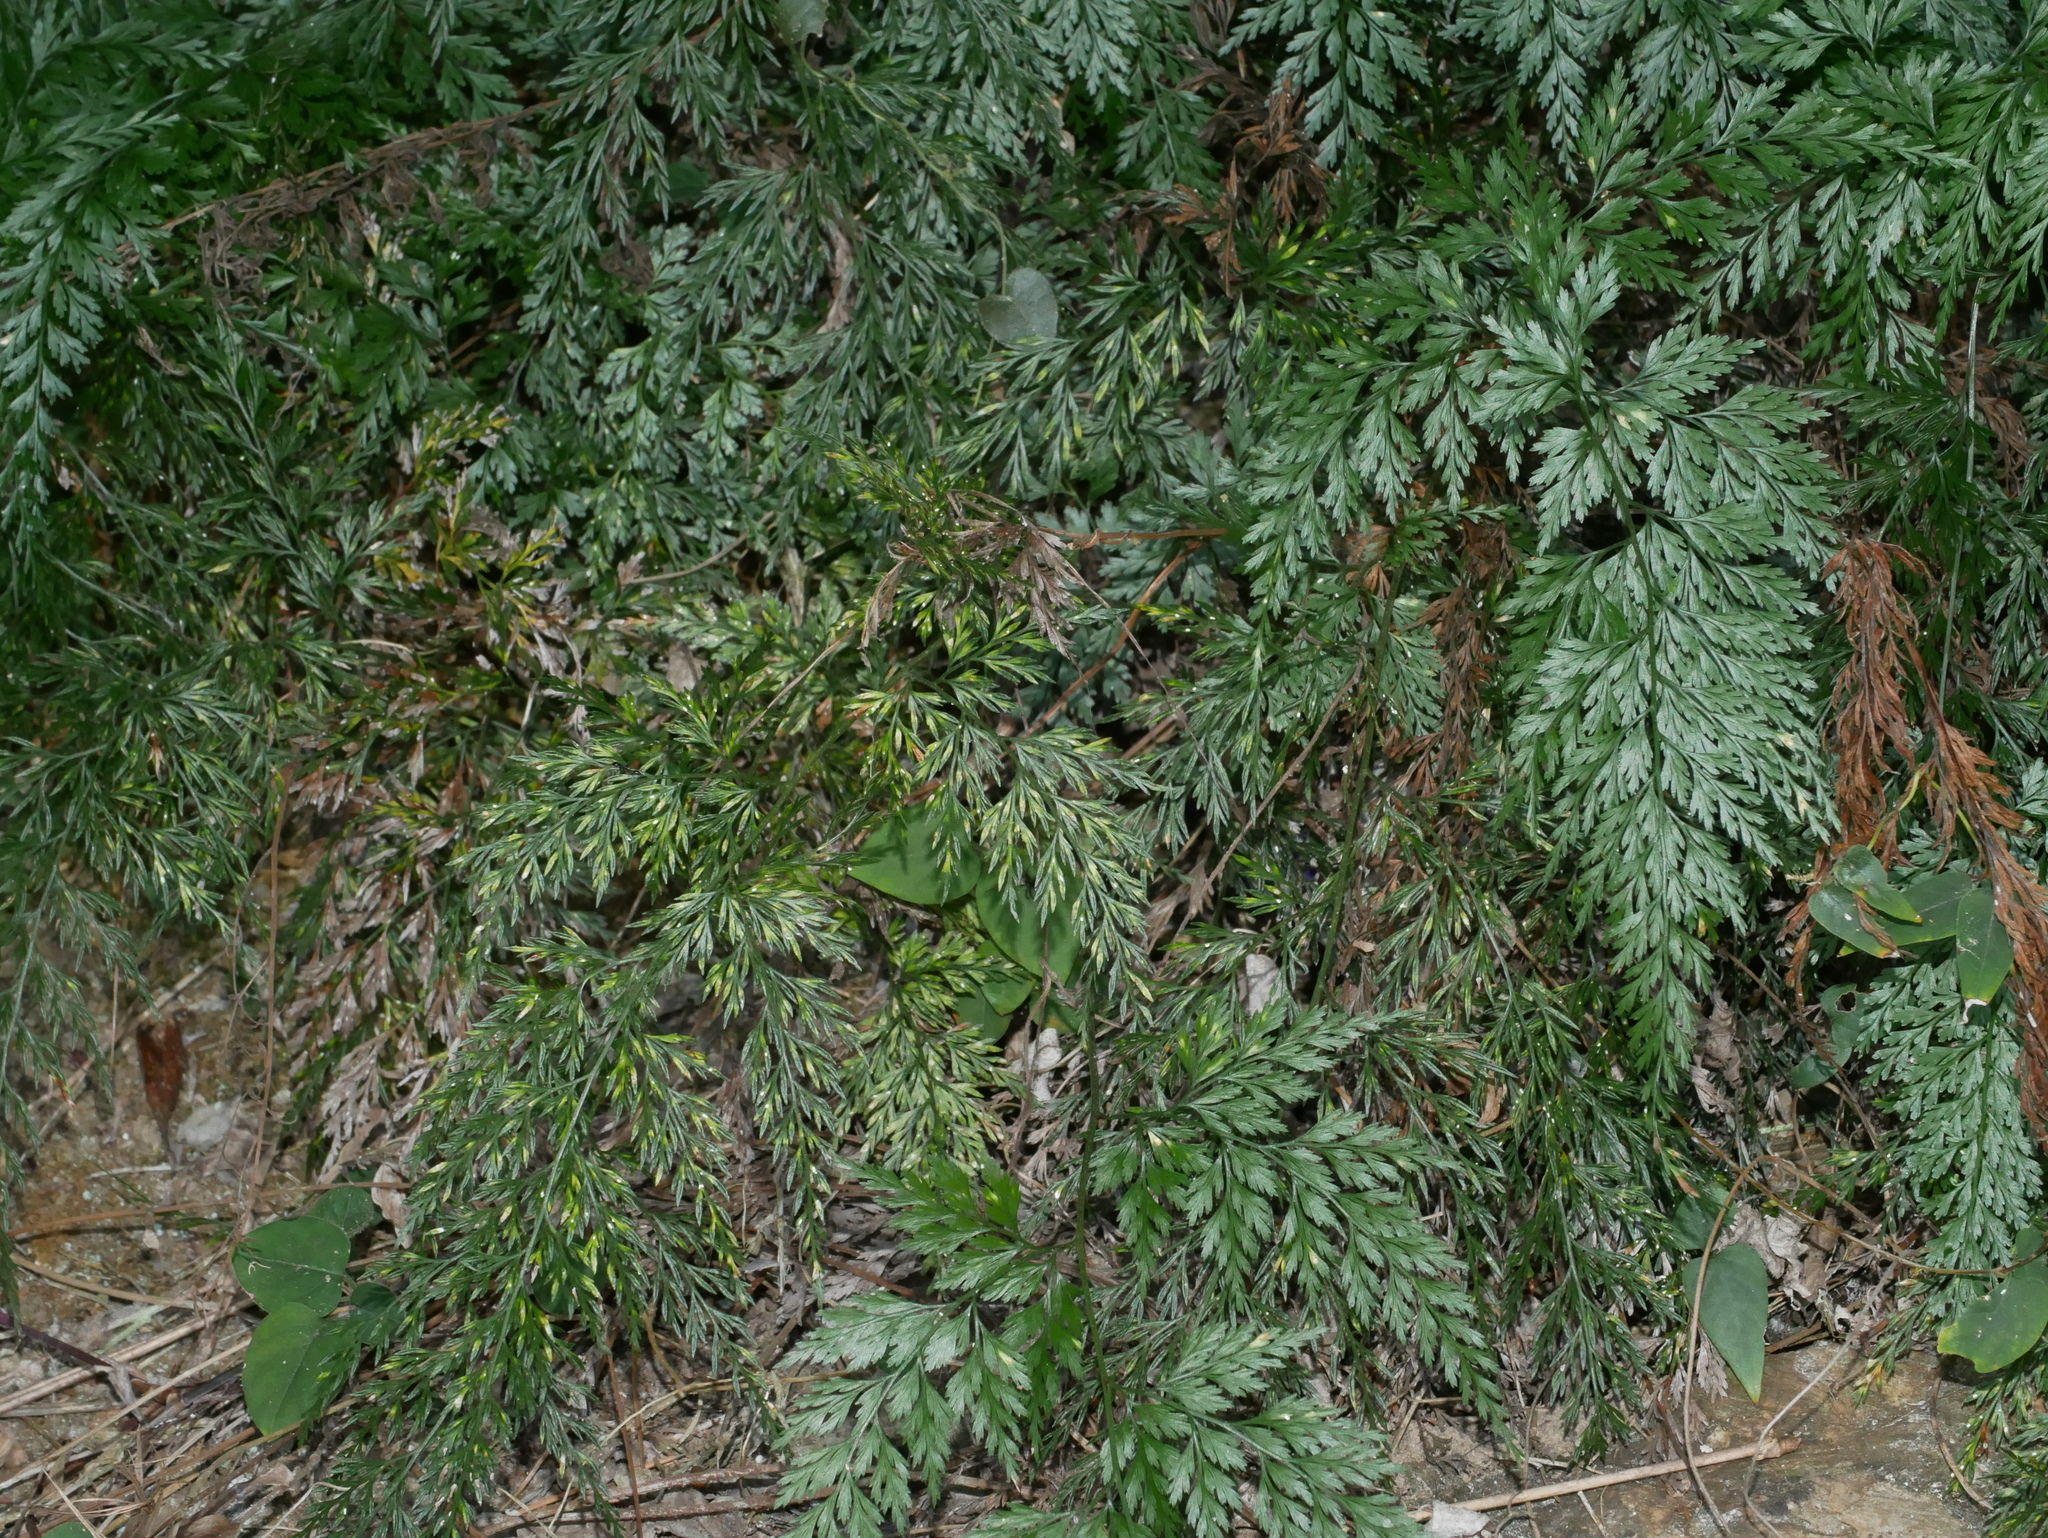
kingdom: Plantae
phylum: Tracheophyta
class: Polypodiopsida
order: Polypodiales
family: Pteridaceae
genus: Onychium
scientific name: Onychium japonicum
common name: Carrot fern
